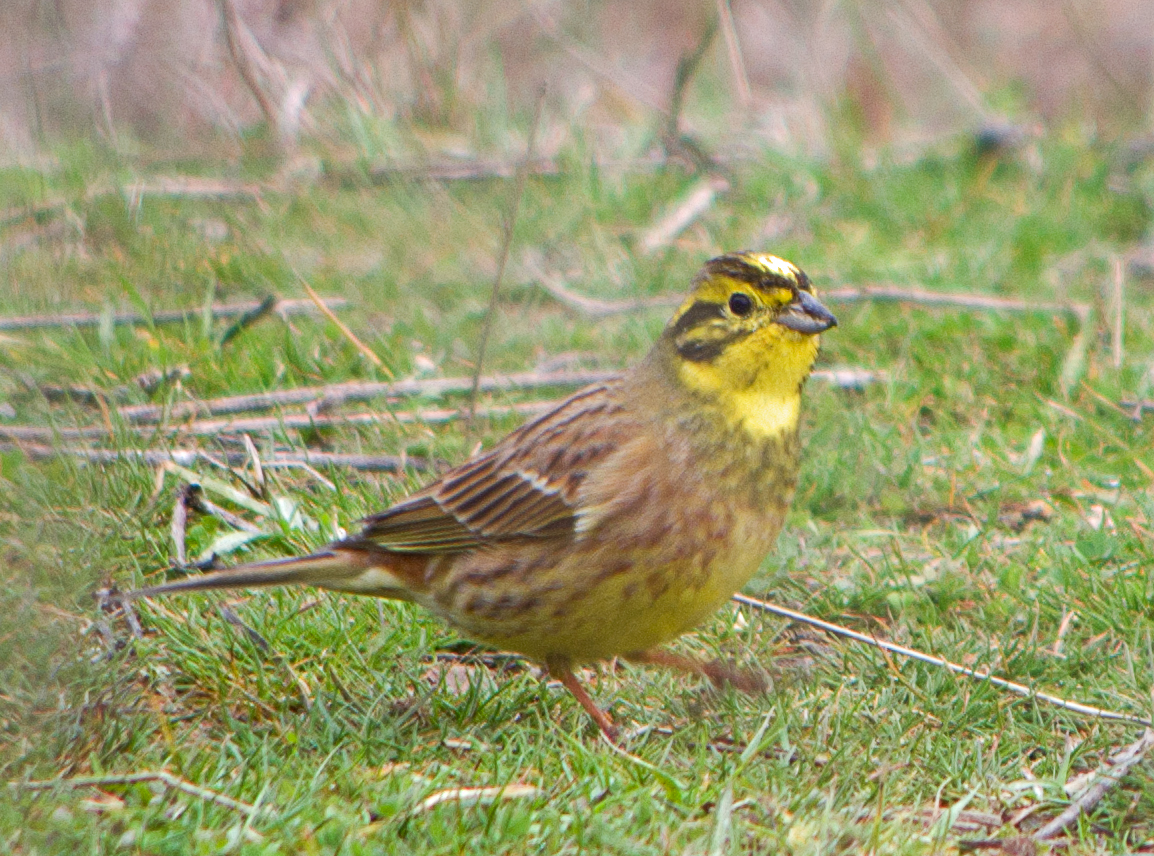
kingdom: Animalia
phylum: Chordata
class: Aves
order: Passeriformes
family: Emberizidae
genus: Emberiza
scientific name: Emberiza citrinella
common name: Yellowhammer
